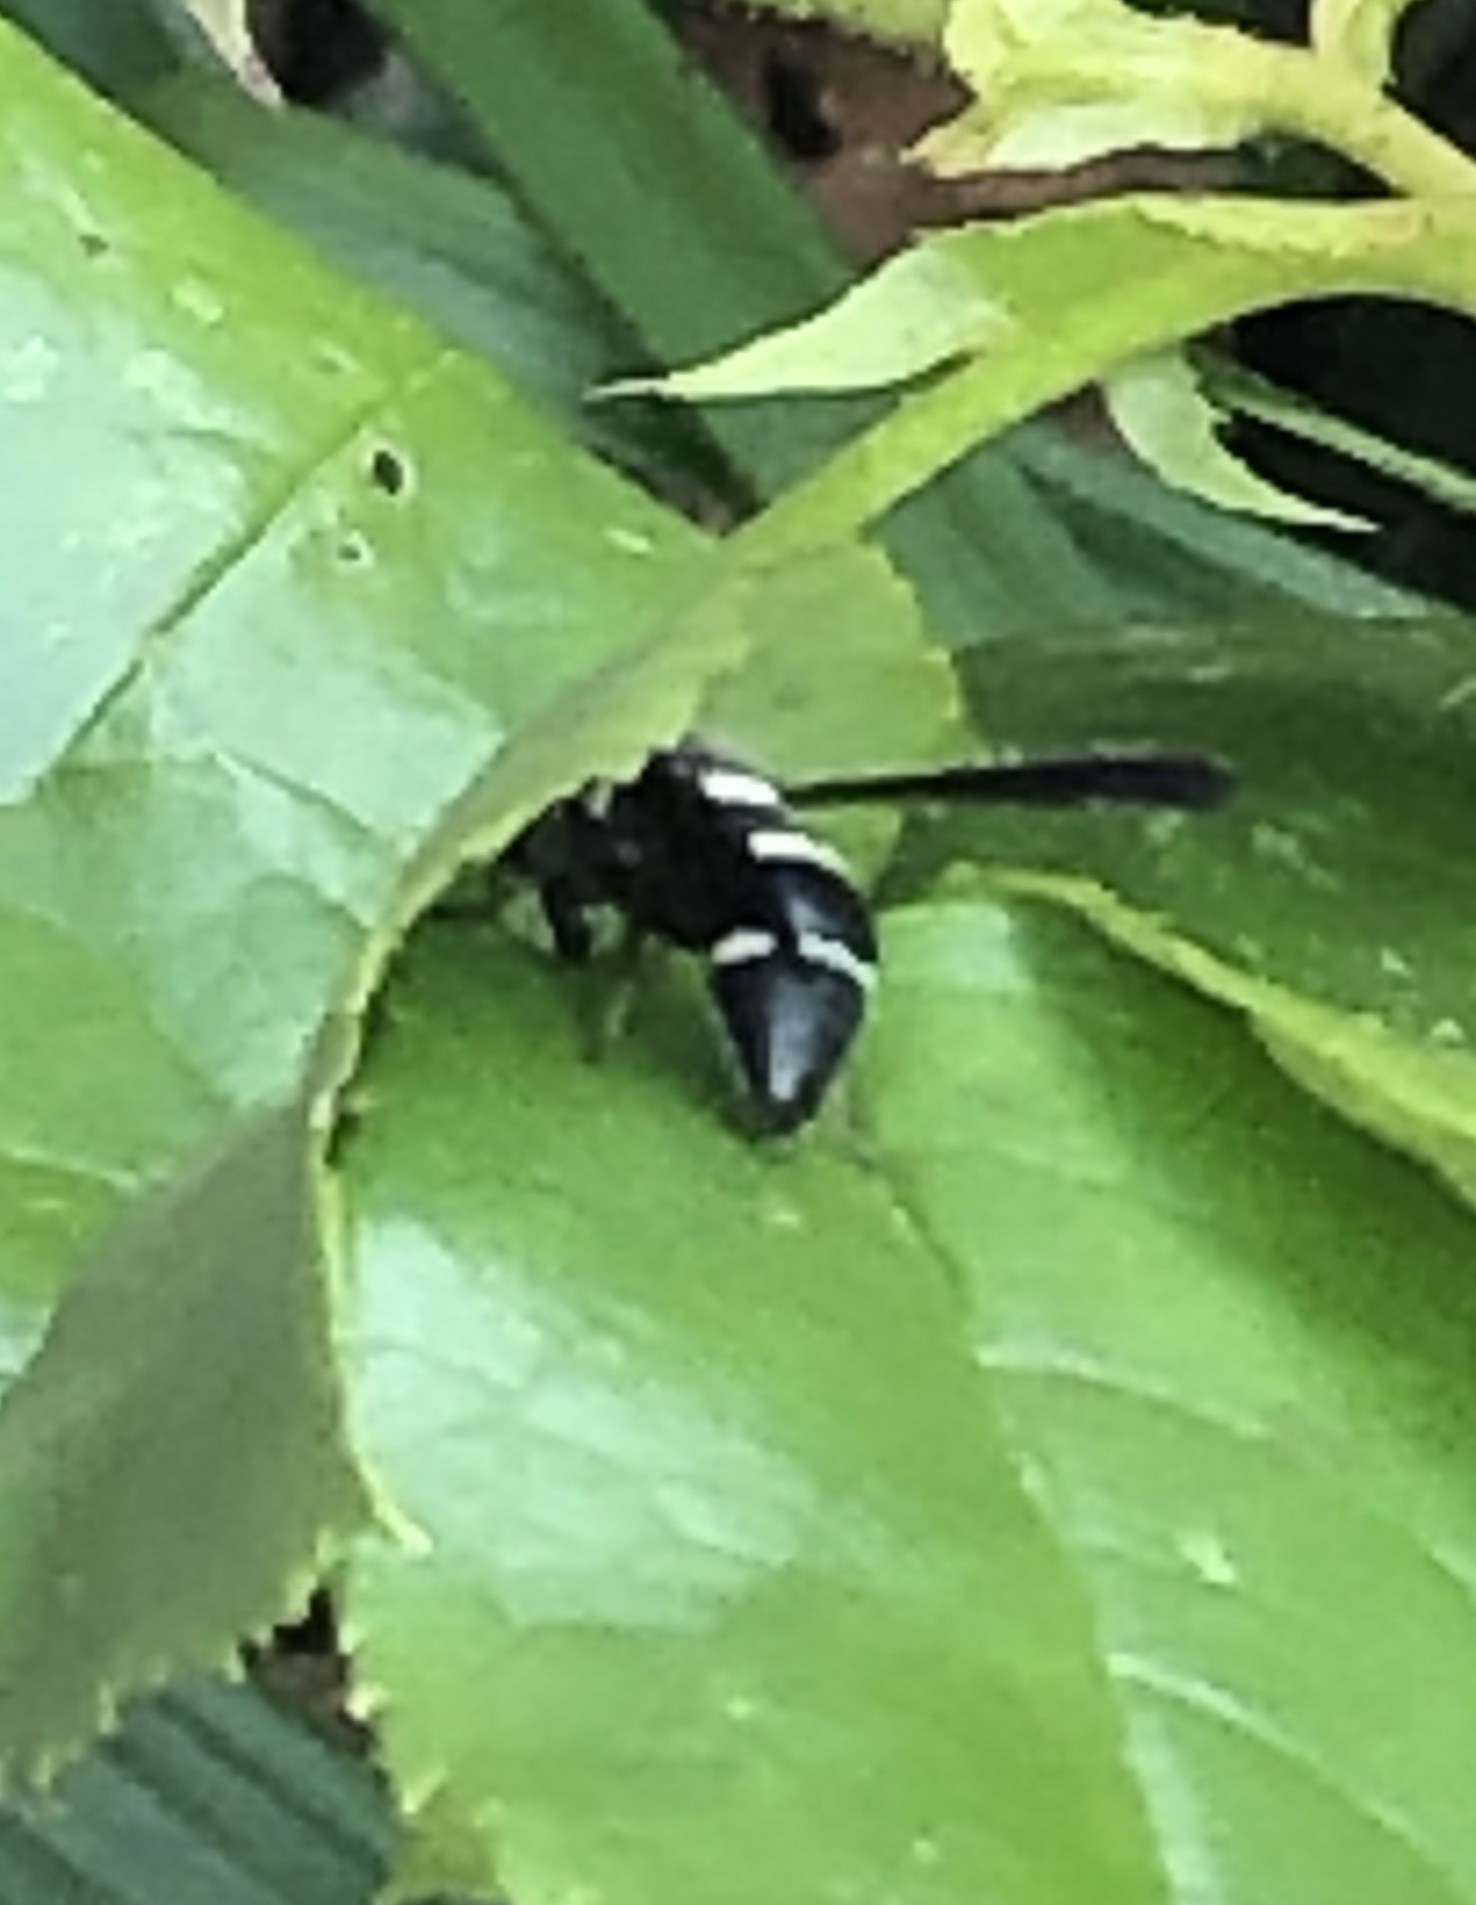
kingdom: Animalia
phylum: Arthropoda
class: Insecta
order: Hymenoptera
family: Eumenidae
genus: Euodynerus
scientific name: Euodynerus
